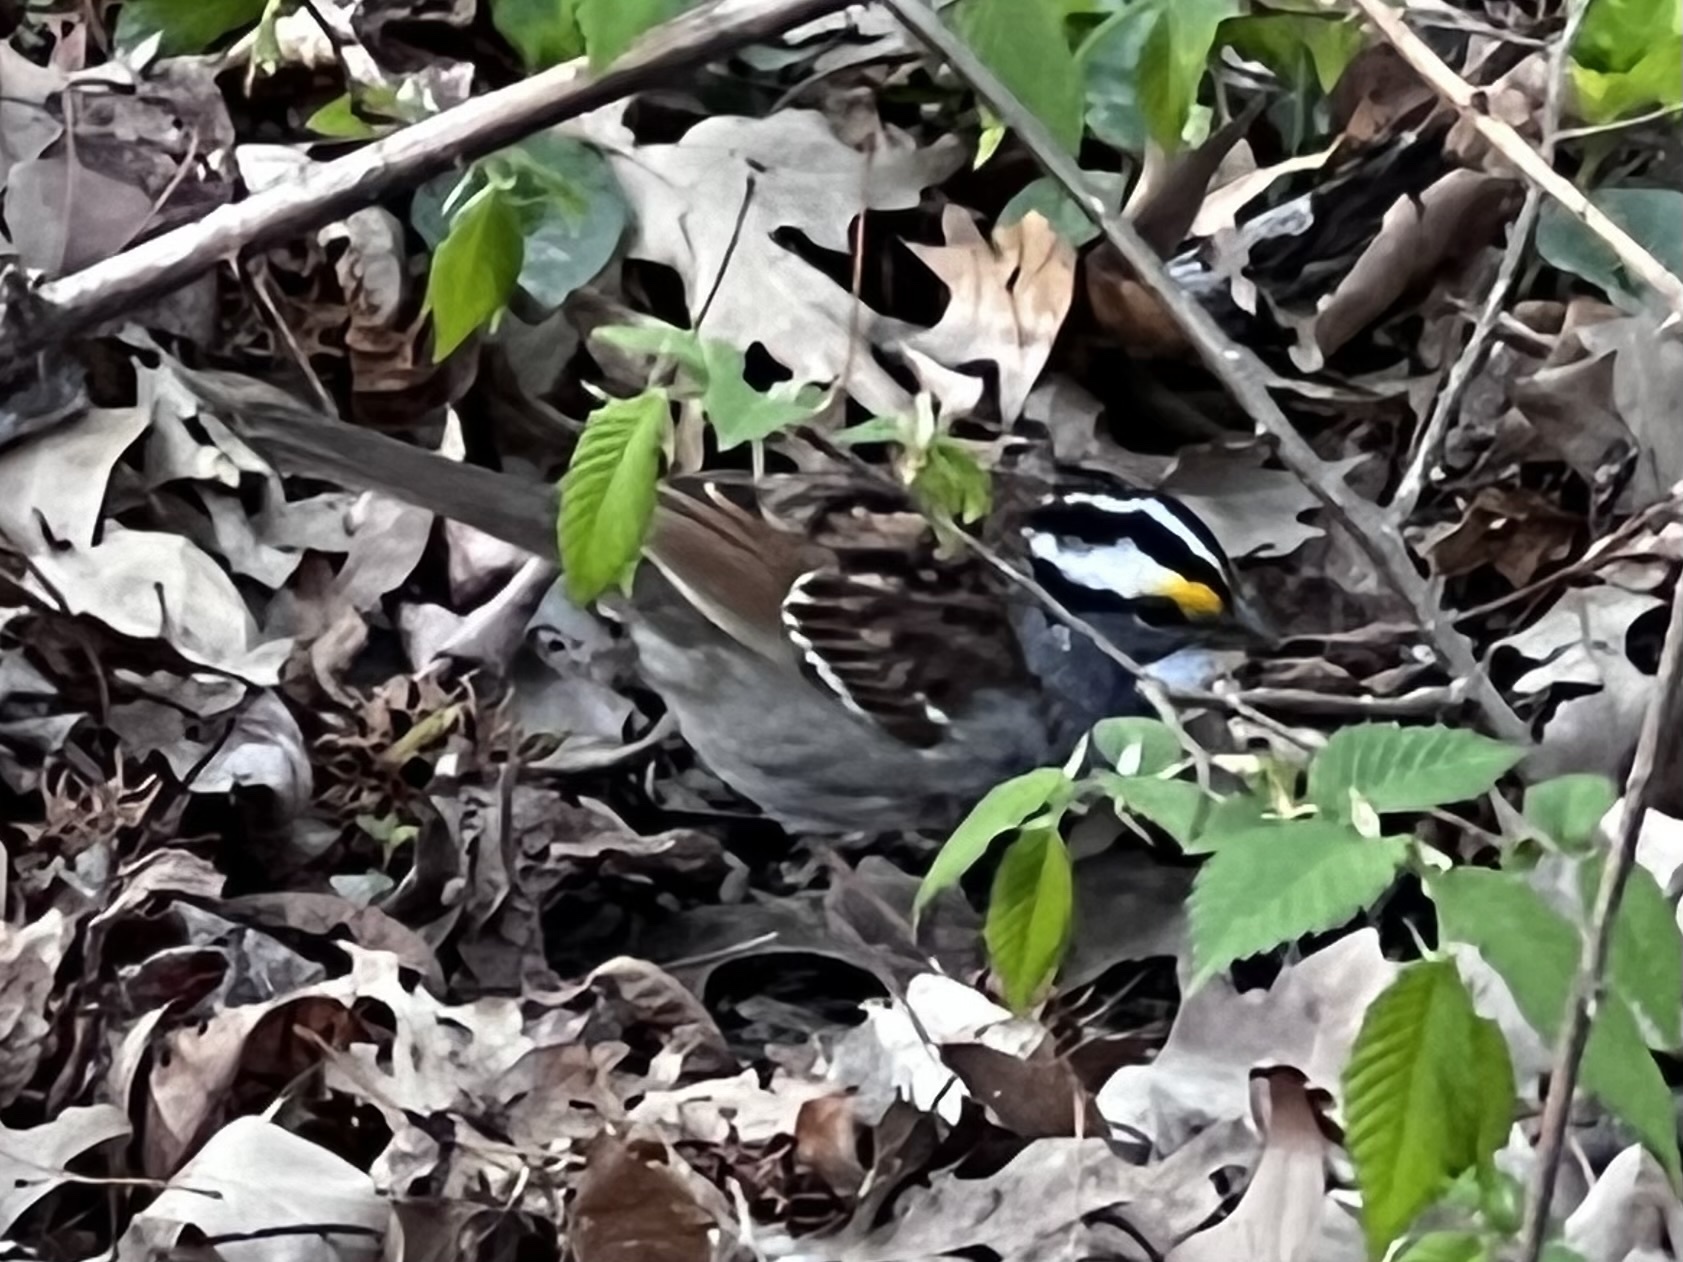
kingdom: Animalia
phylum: Chordata
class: Aves
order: Passeriformes
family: Passerellidae
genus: Zonotrichia
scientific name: Zonotrichia albicollis
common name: White-throated sparrow
